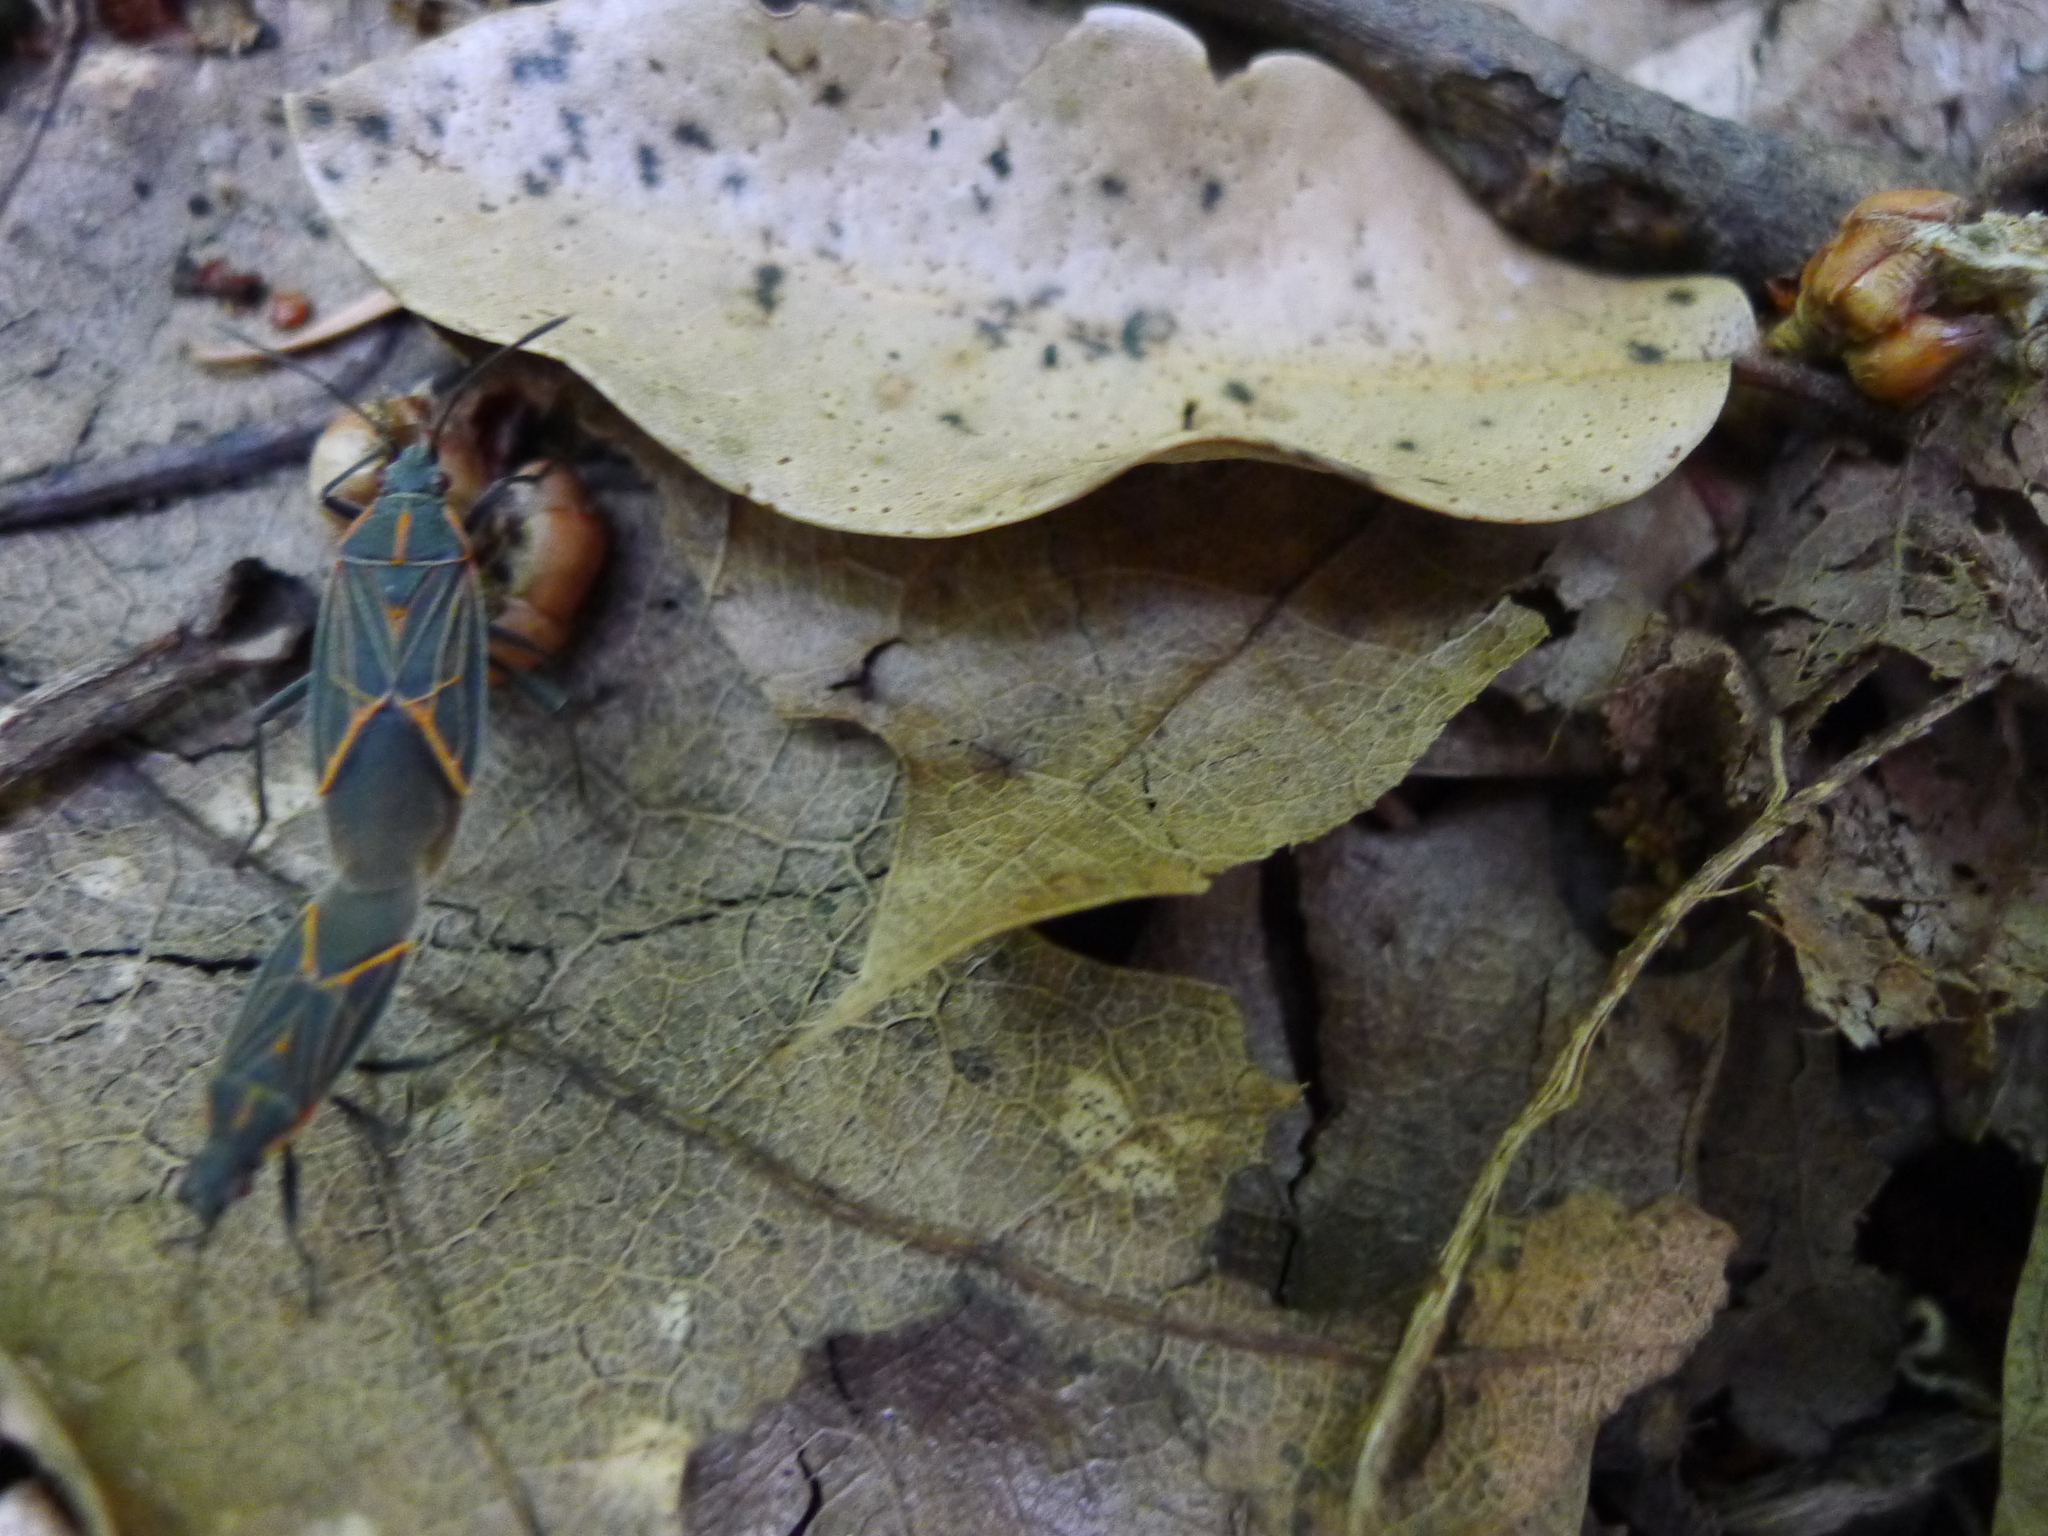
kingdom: Animalia
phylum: Arthropoda
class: Insecta
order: Hemiptera
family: Rhopalidae
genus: Boisea
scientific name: Boisea rubrolineata
